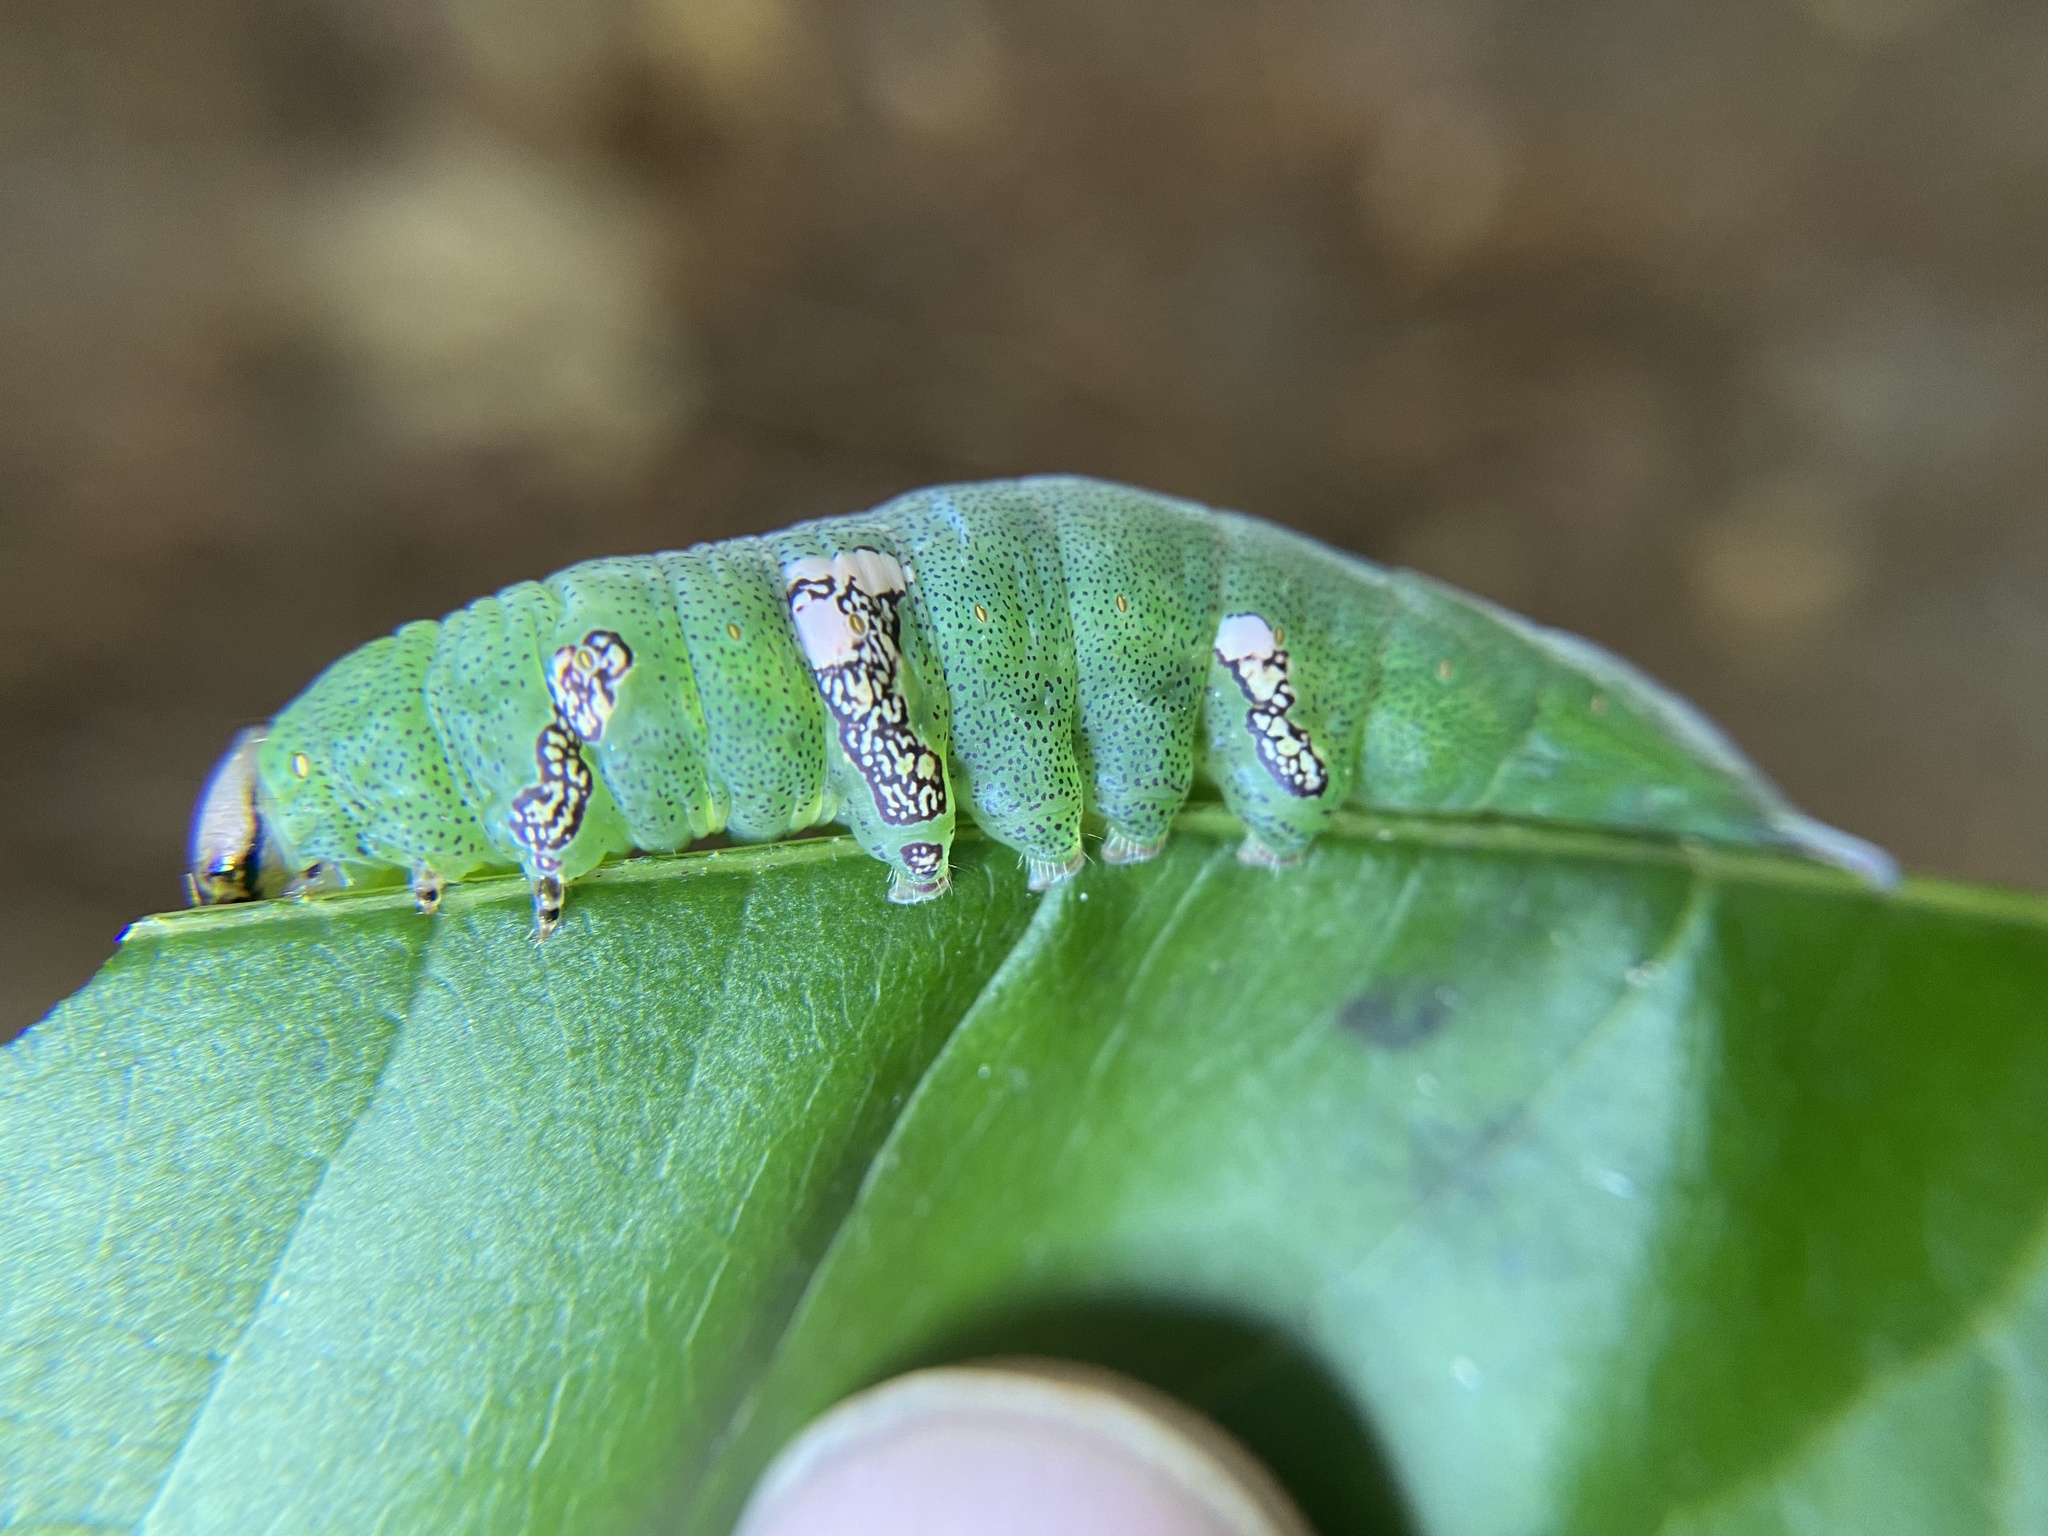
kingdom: Animalia
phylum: Arthropoda
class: Insecta
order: Lepidoptera
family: Notodontidae
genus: Disphragis
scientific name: Disphragis Cecrita biundata
